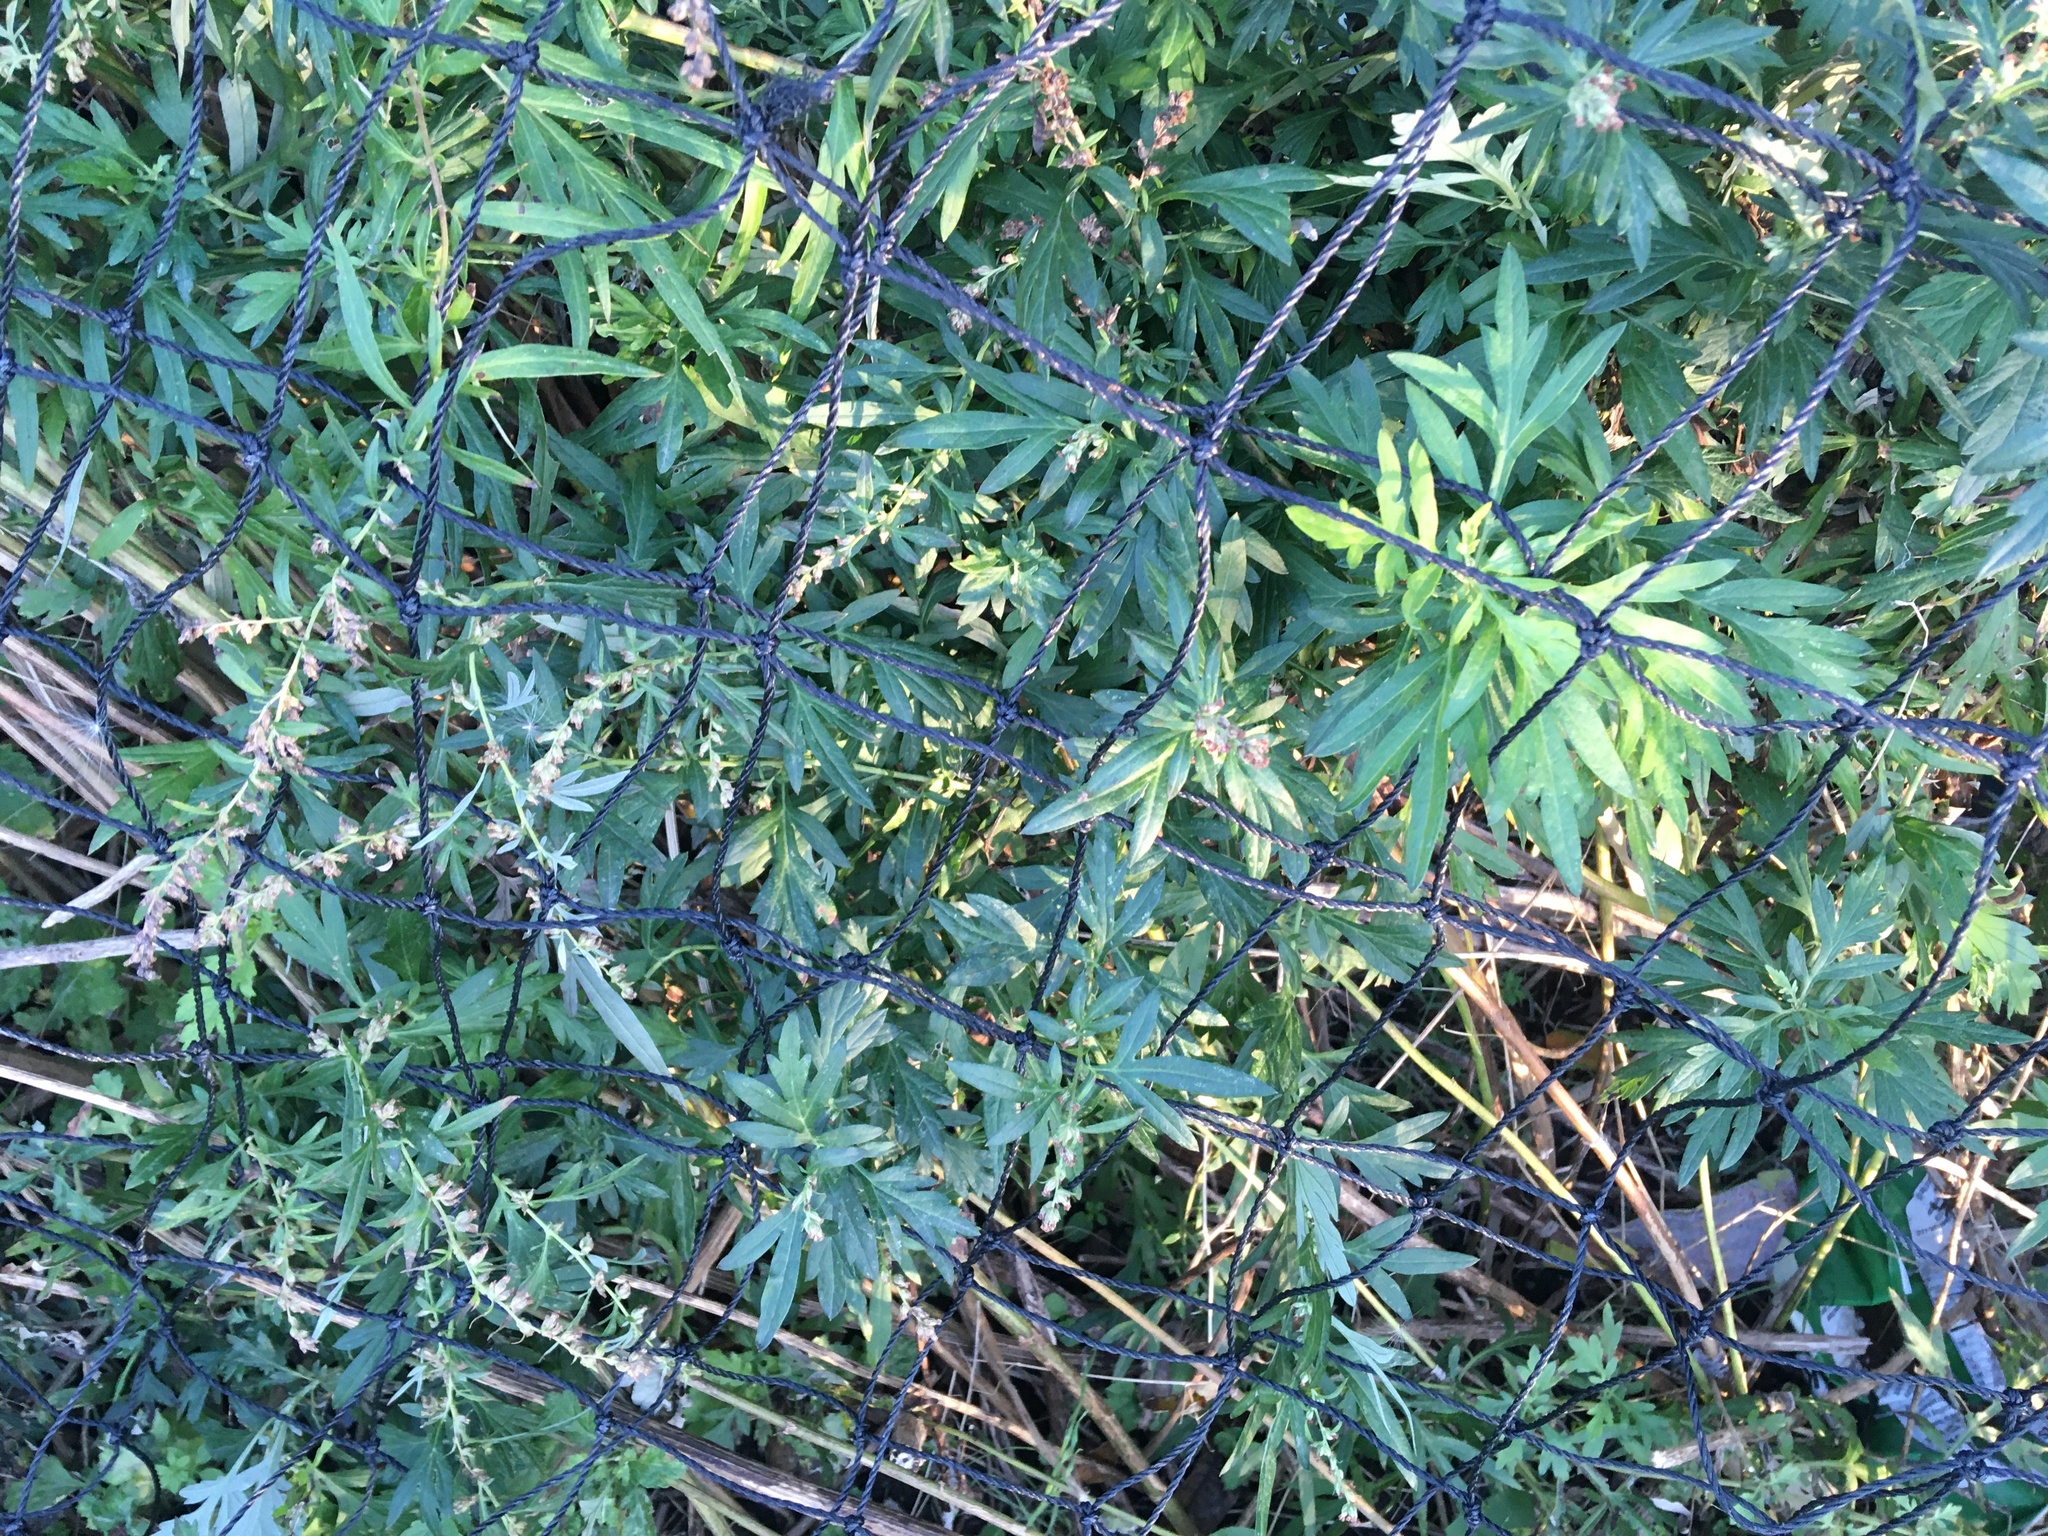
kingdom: Plantae
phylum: Tracheophyta
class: Magnoliopsida
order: Asterales
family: Asteraceae
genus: Artemisia
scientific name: Artemisia vulgaris
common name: Mugwort
